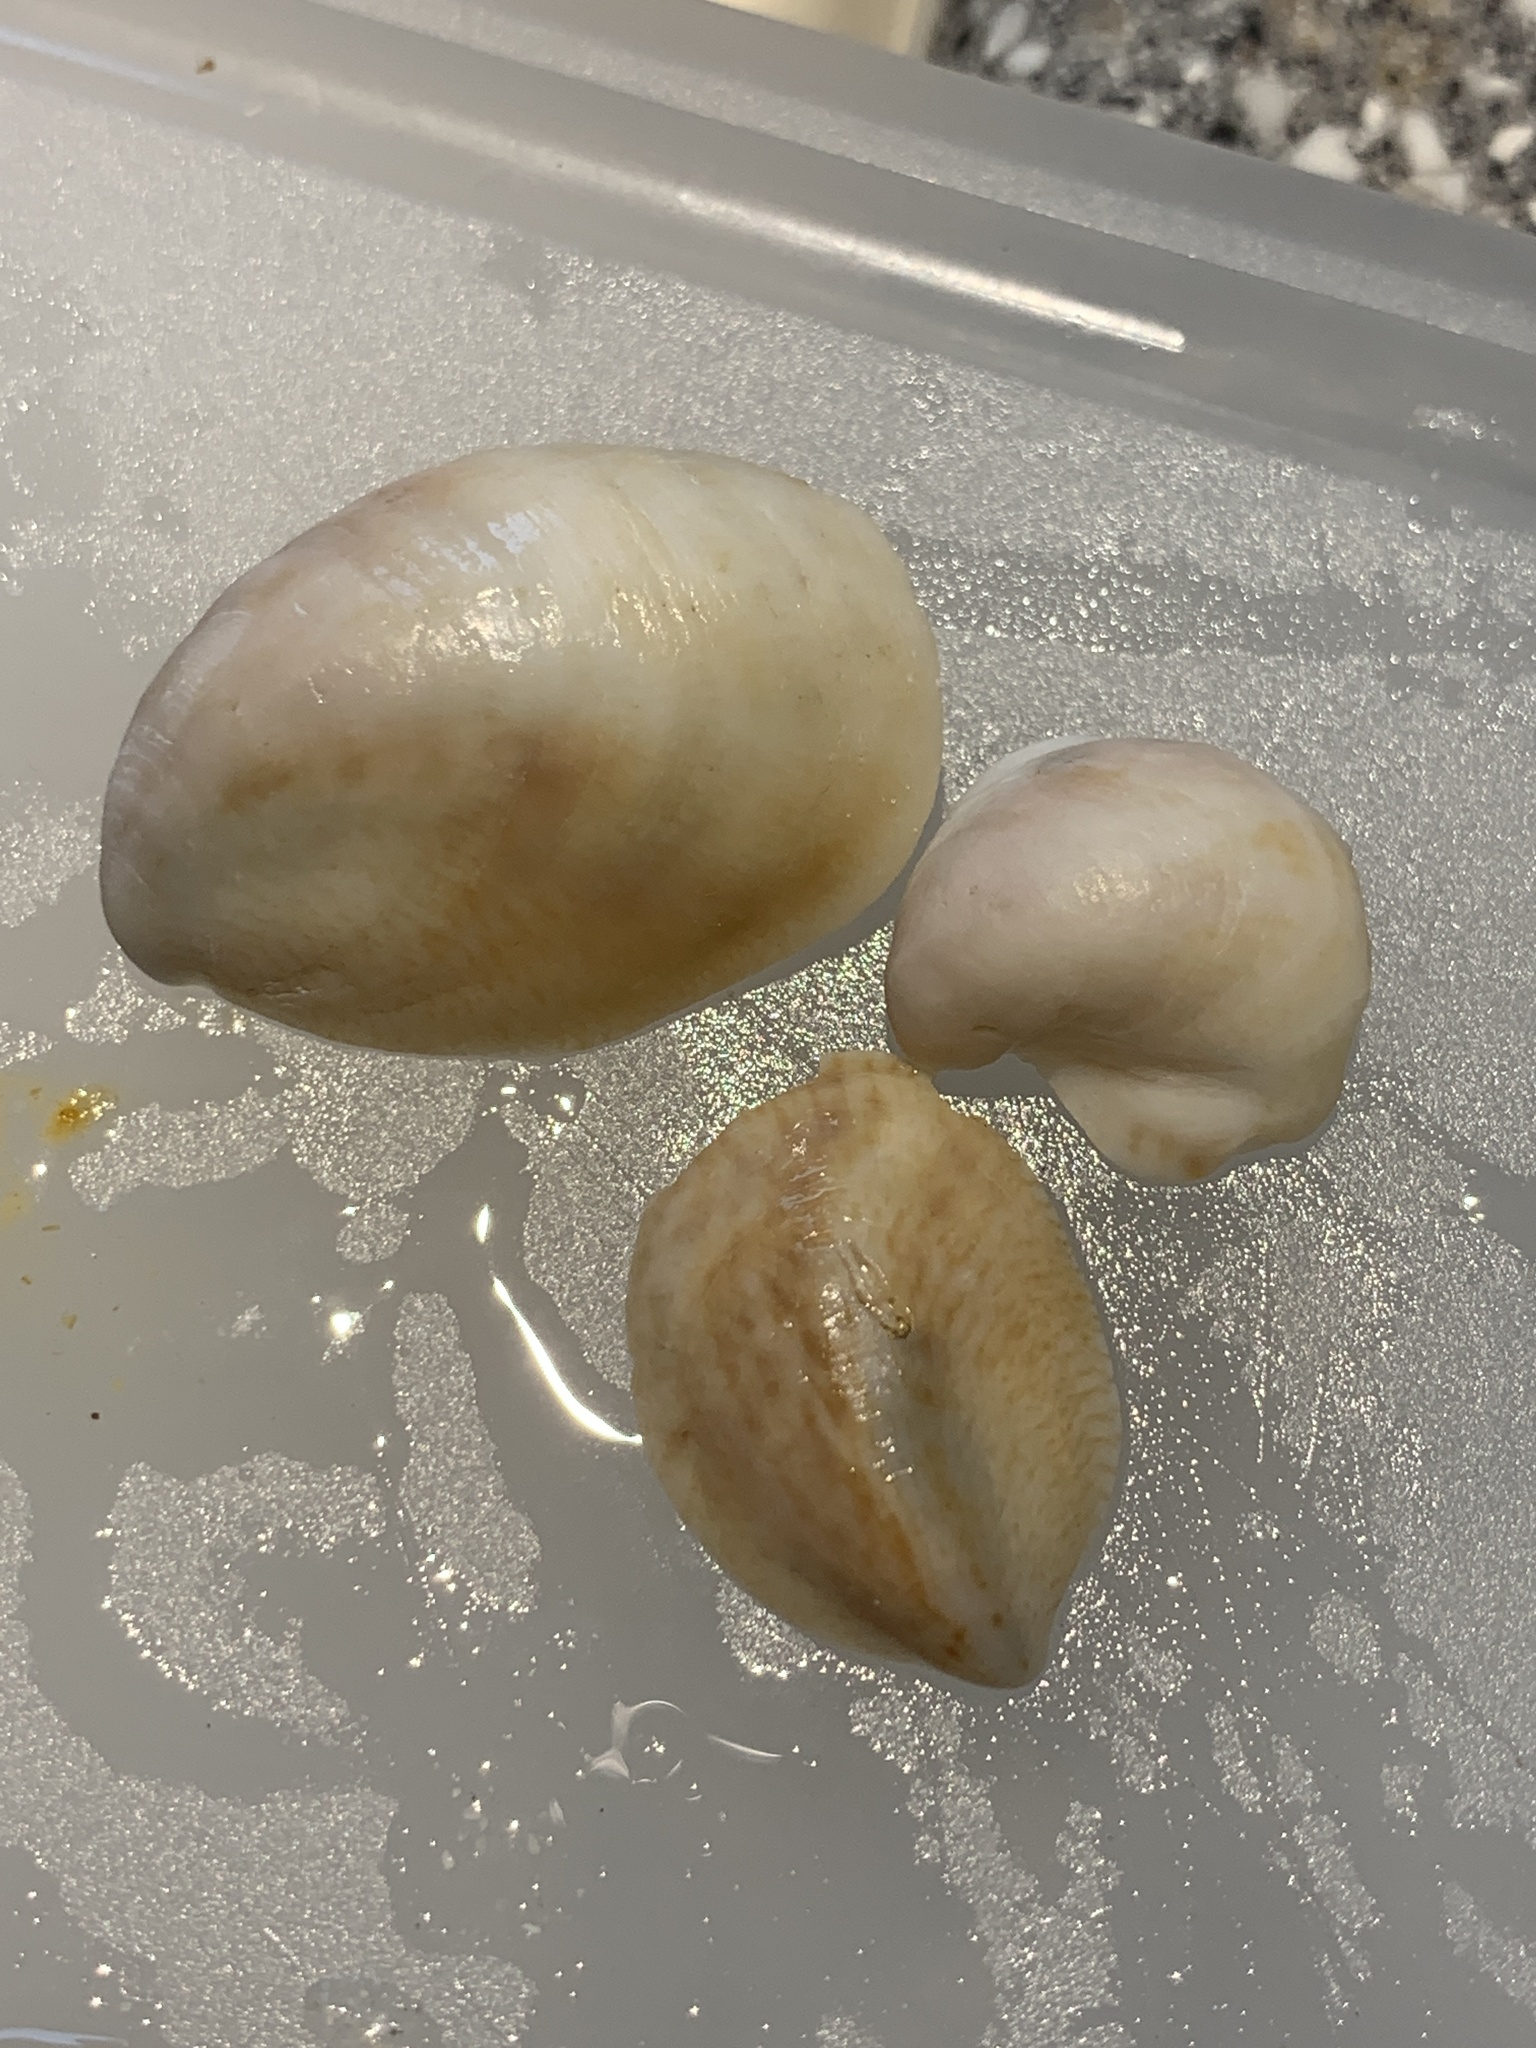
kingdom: Animalia
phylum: Mollusca
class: Gastropoda
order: Littorinimorpha
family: Calyptraeidae
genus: Crepidula
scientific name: Crepidula fornicata
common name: Slipper limpet
